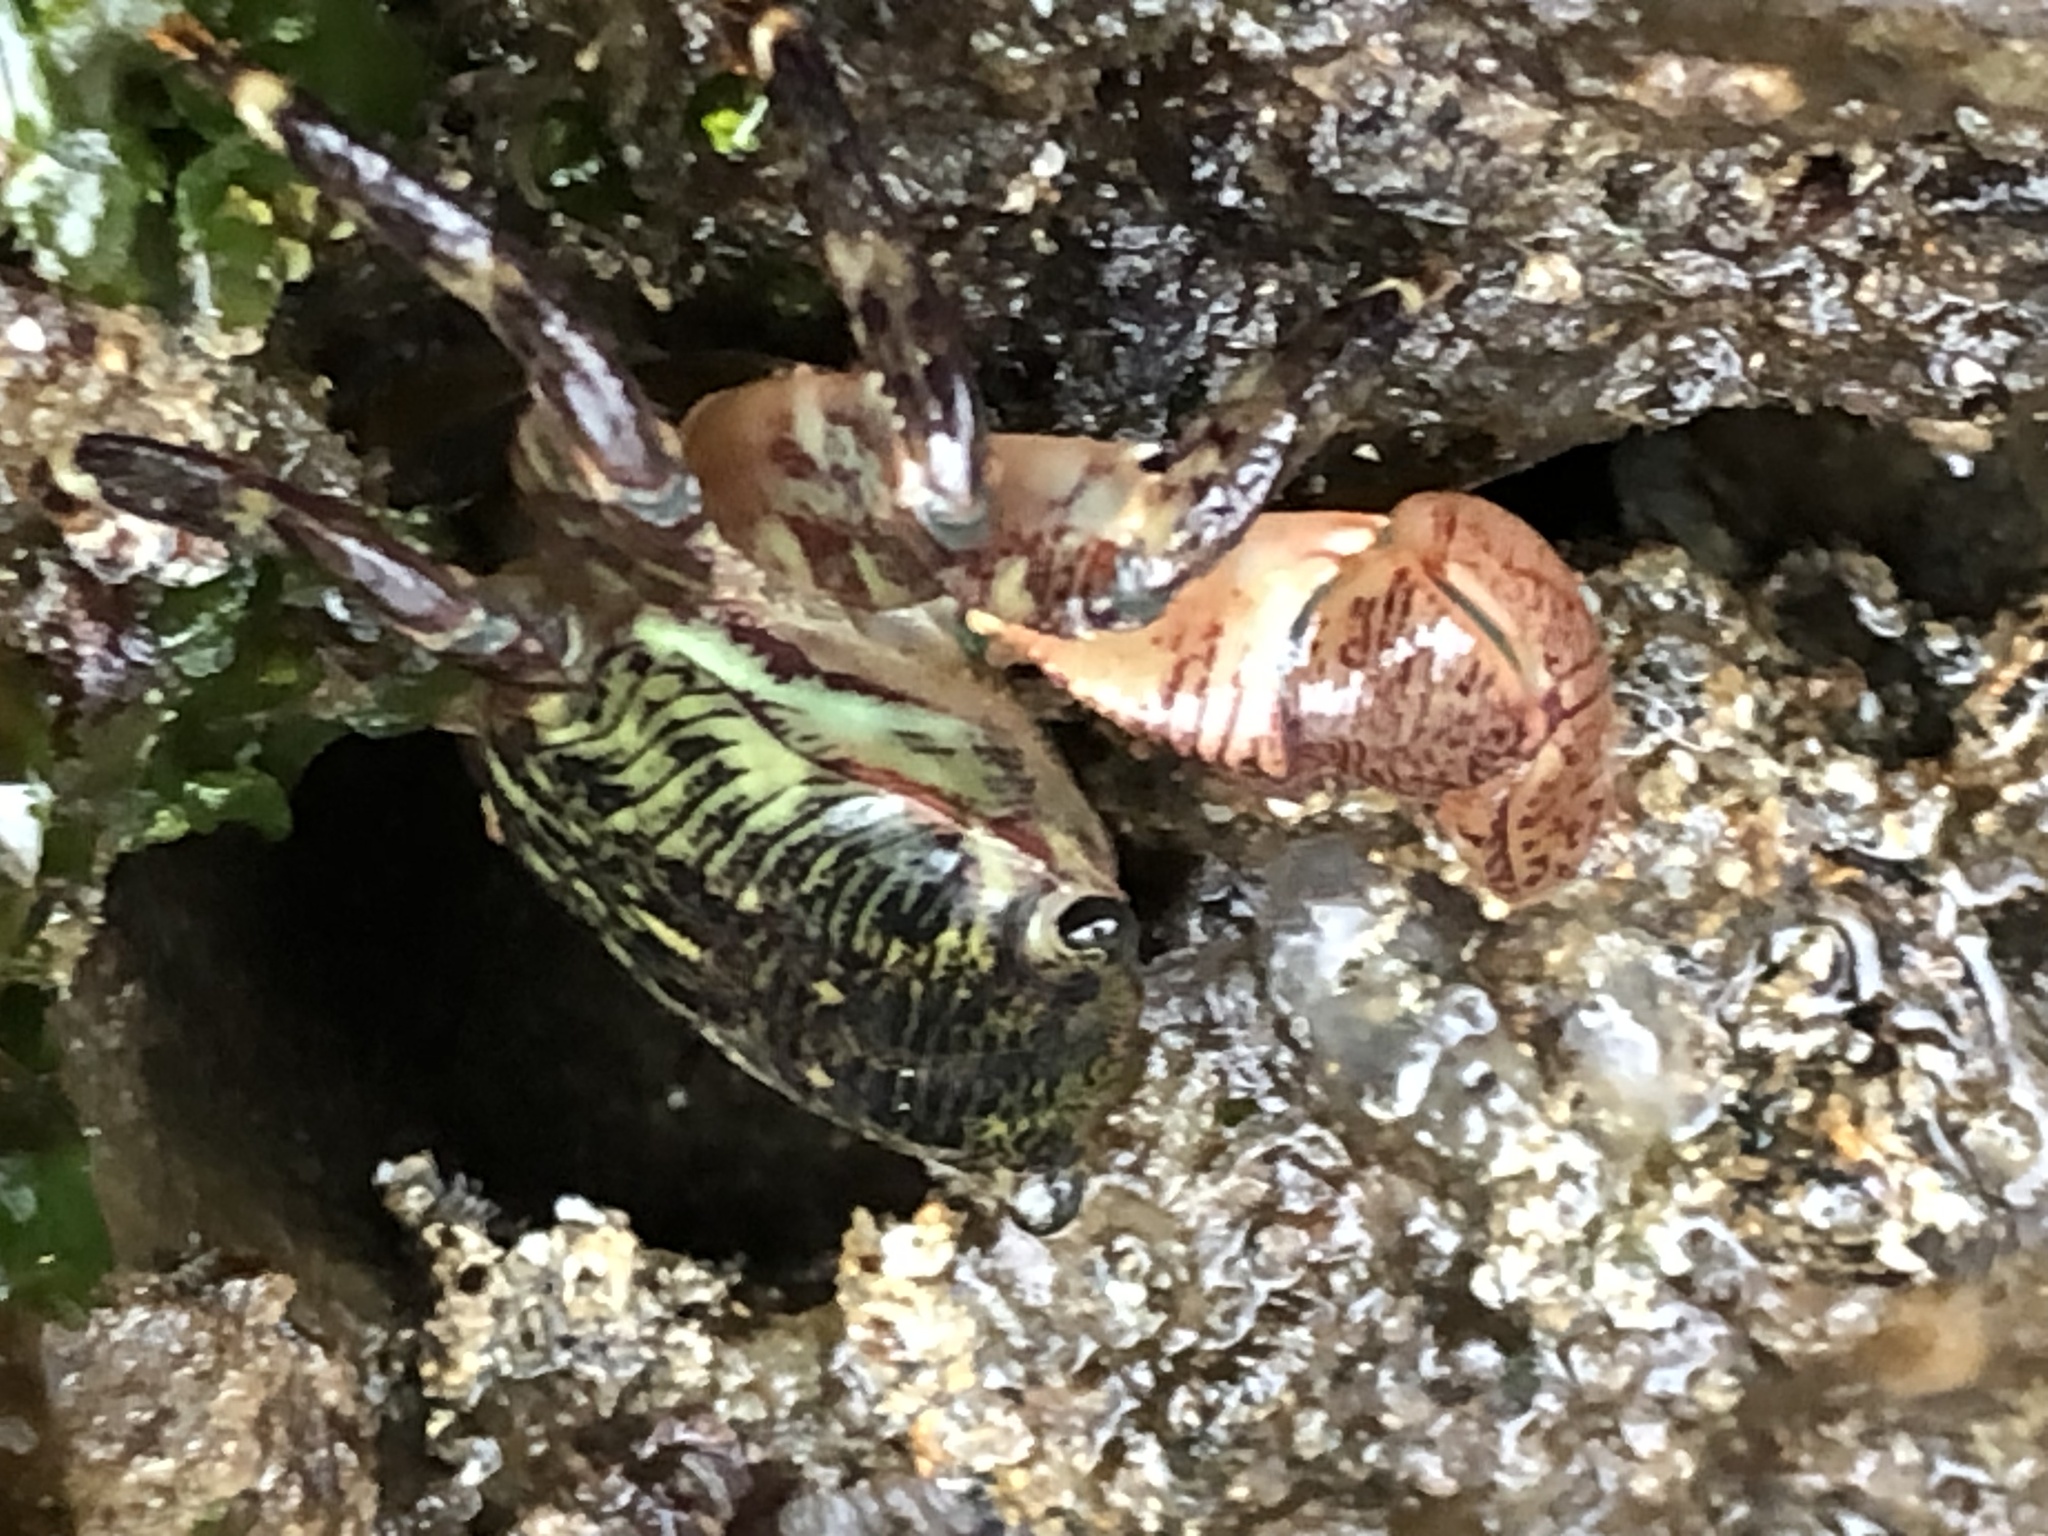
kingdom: Animalia
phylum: Arthropoda
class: Malacostraca
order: Decapoda
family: Grapsidae
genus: Pachygrapsus
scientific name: Pachygrapsus crassipes
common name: Striped shore crab
